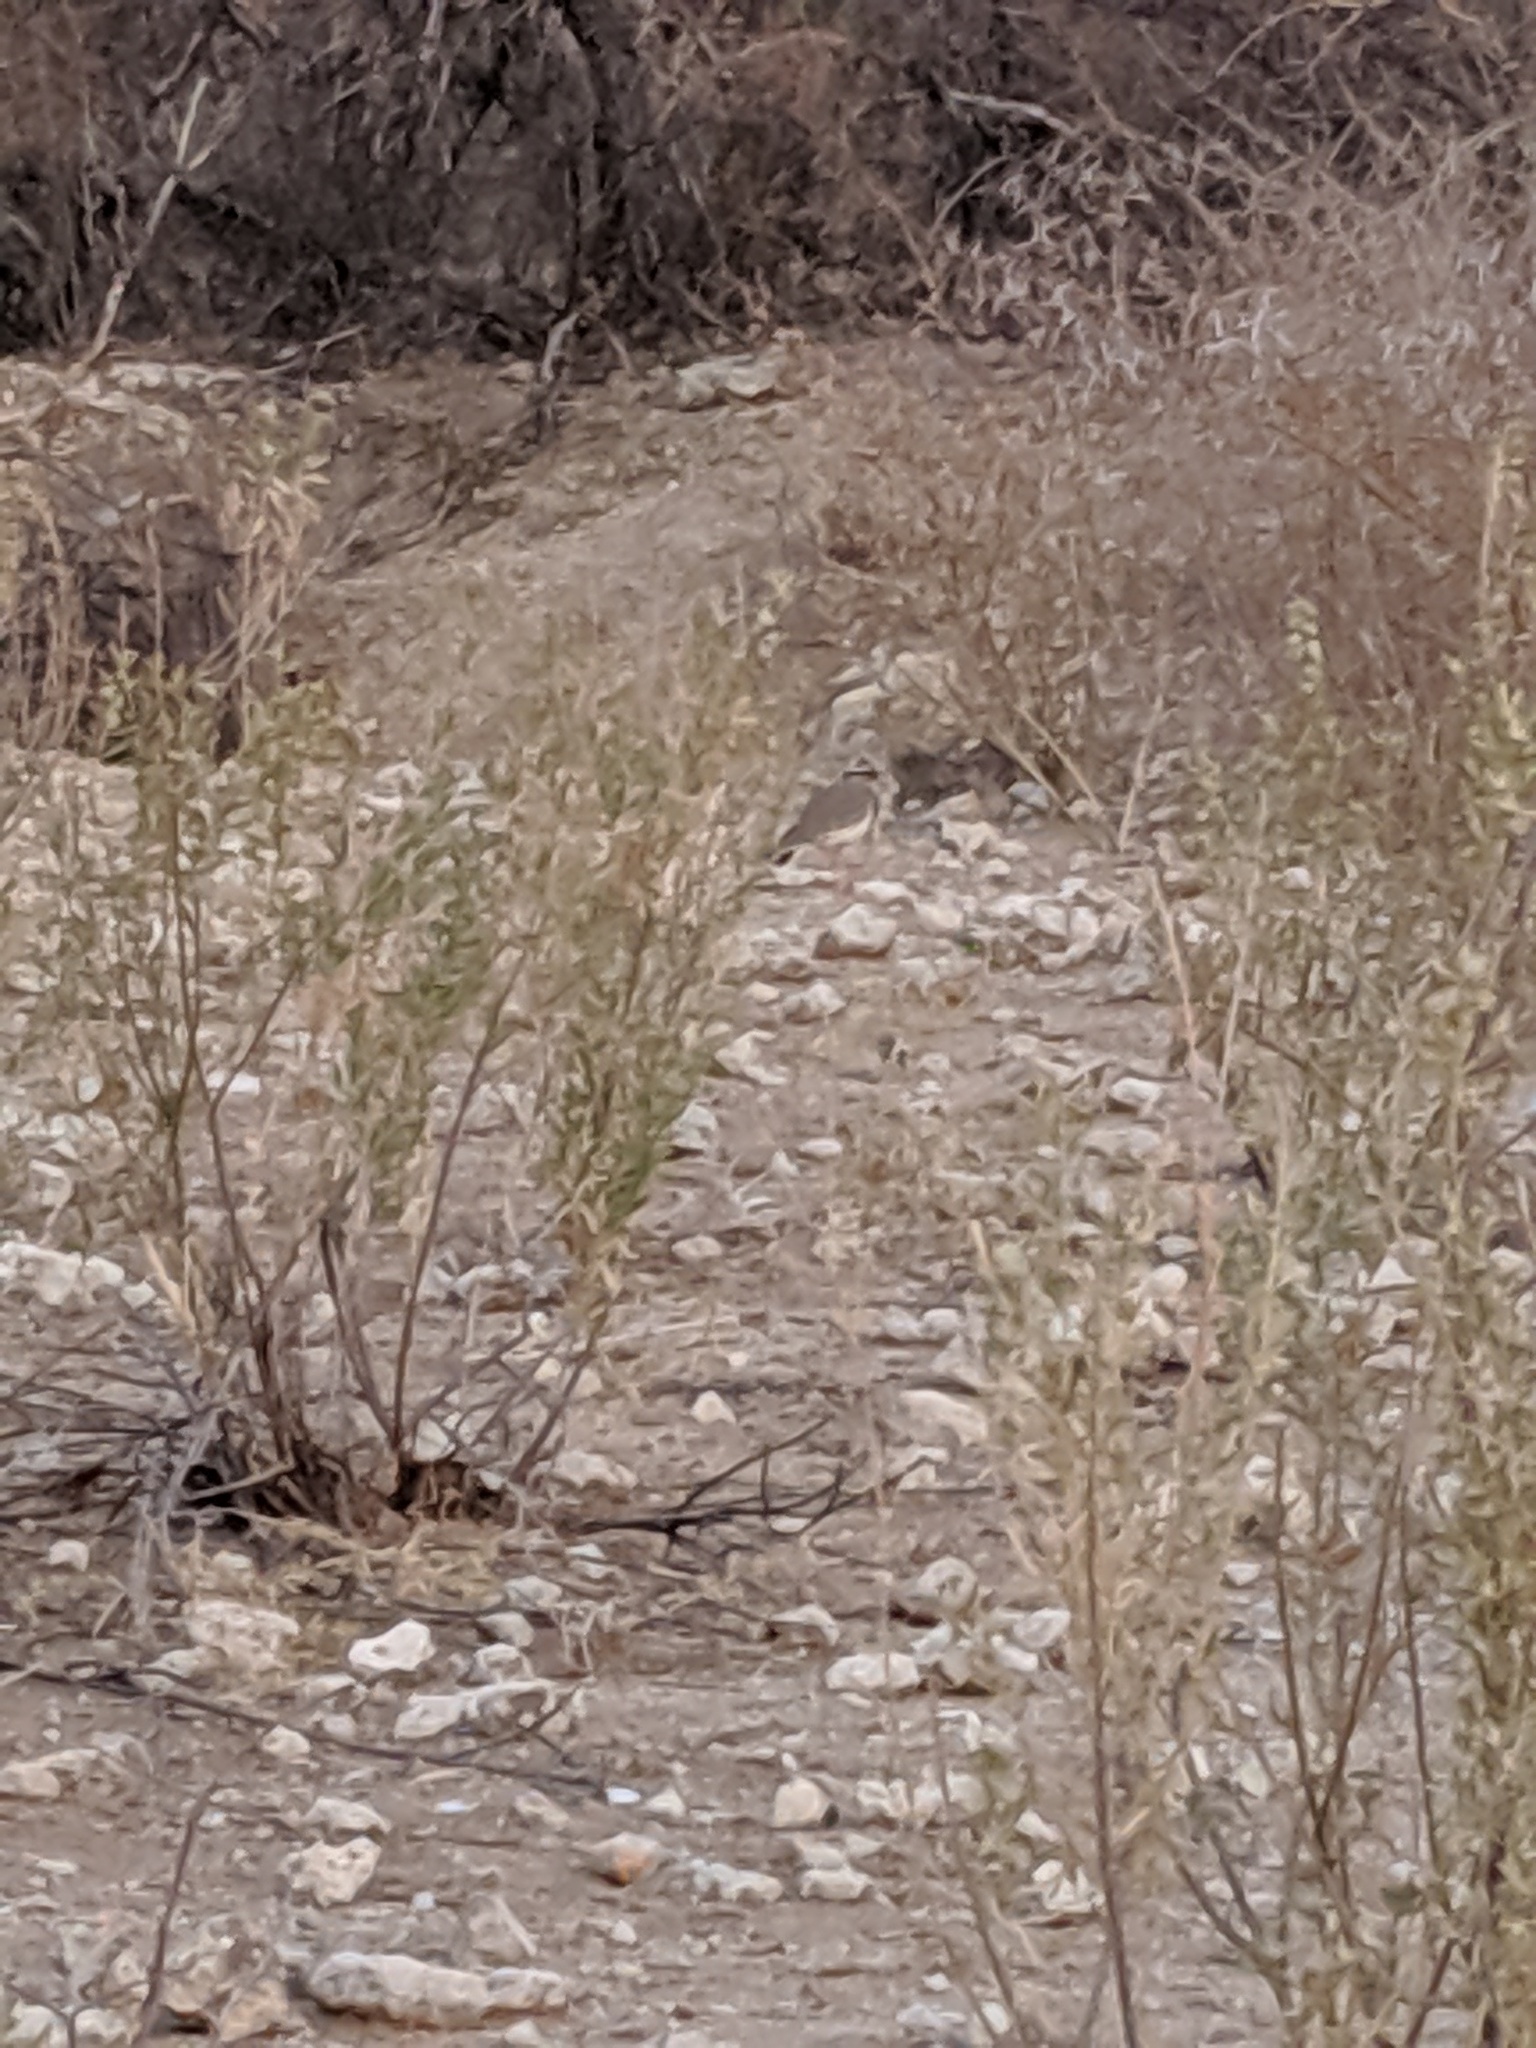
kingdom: Animalia
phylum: Chordata
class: Aves
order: Charadriiformes
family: Charadriidae
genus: Vanellus
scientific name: Vanellus coronatus
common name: Crowned lapwing
